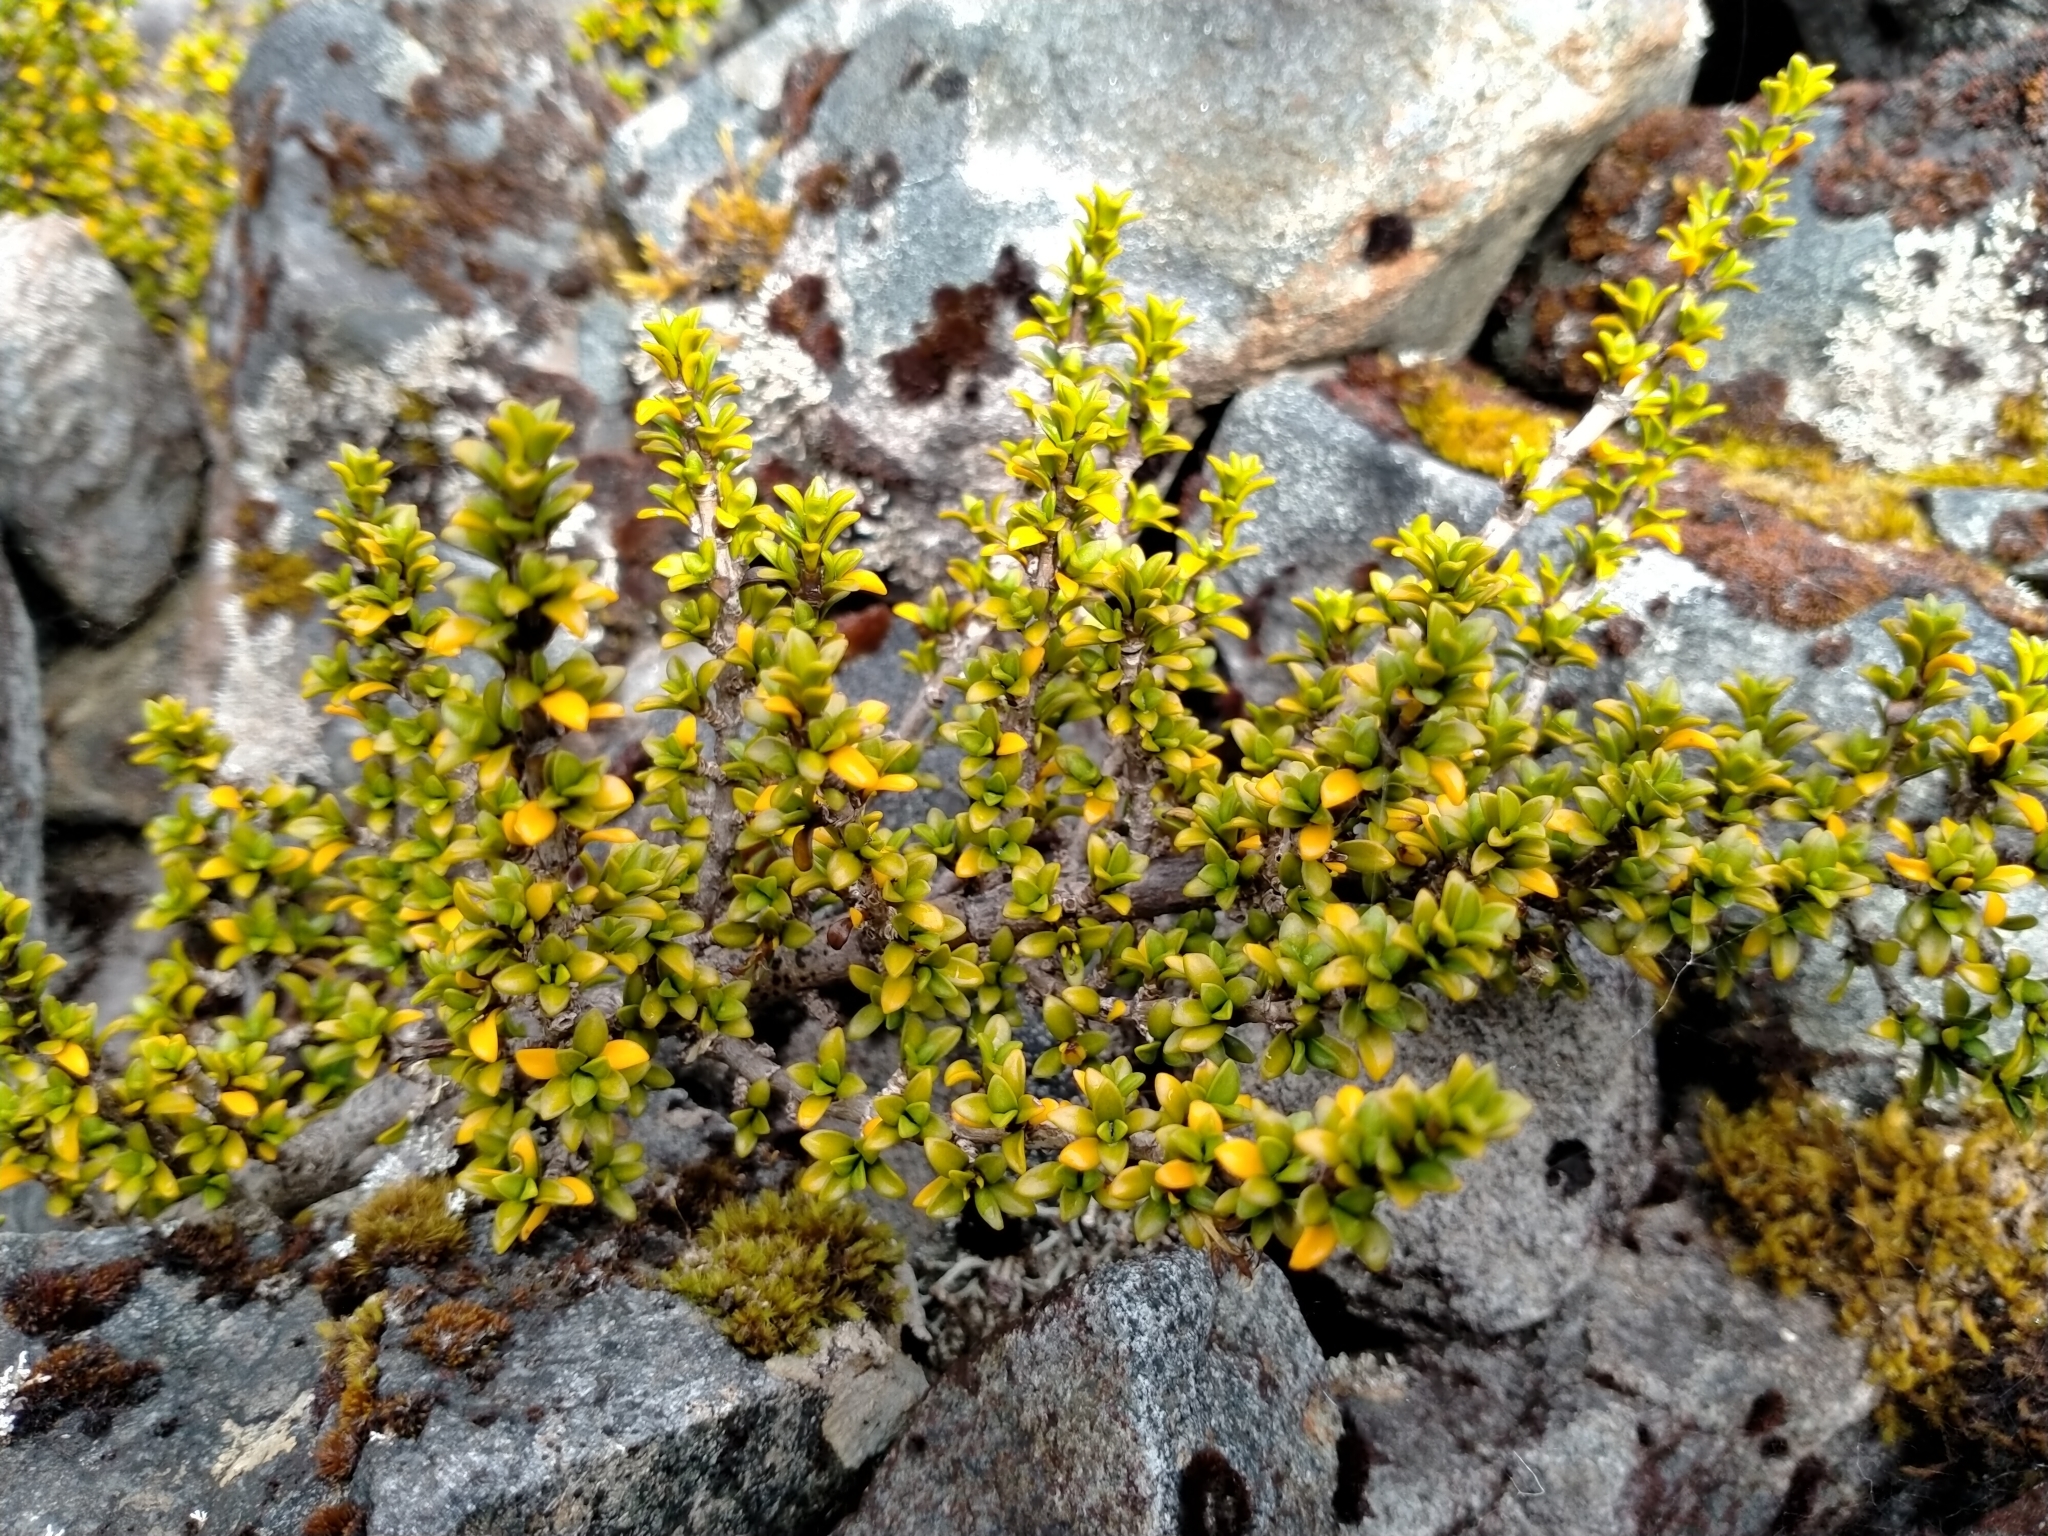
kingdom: Plantae
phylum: Tracheophyta
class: Magnoliopsida
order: Gentianales
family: Rubiaceae
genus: Coprosma
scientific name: Coprosma fowerakeri
